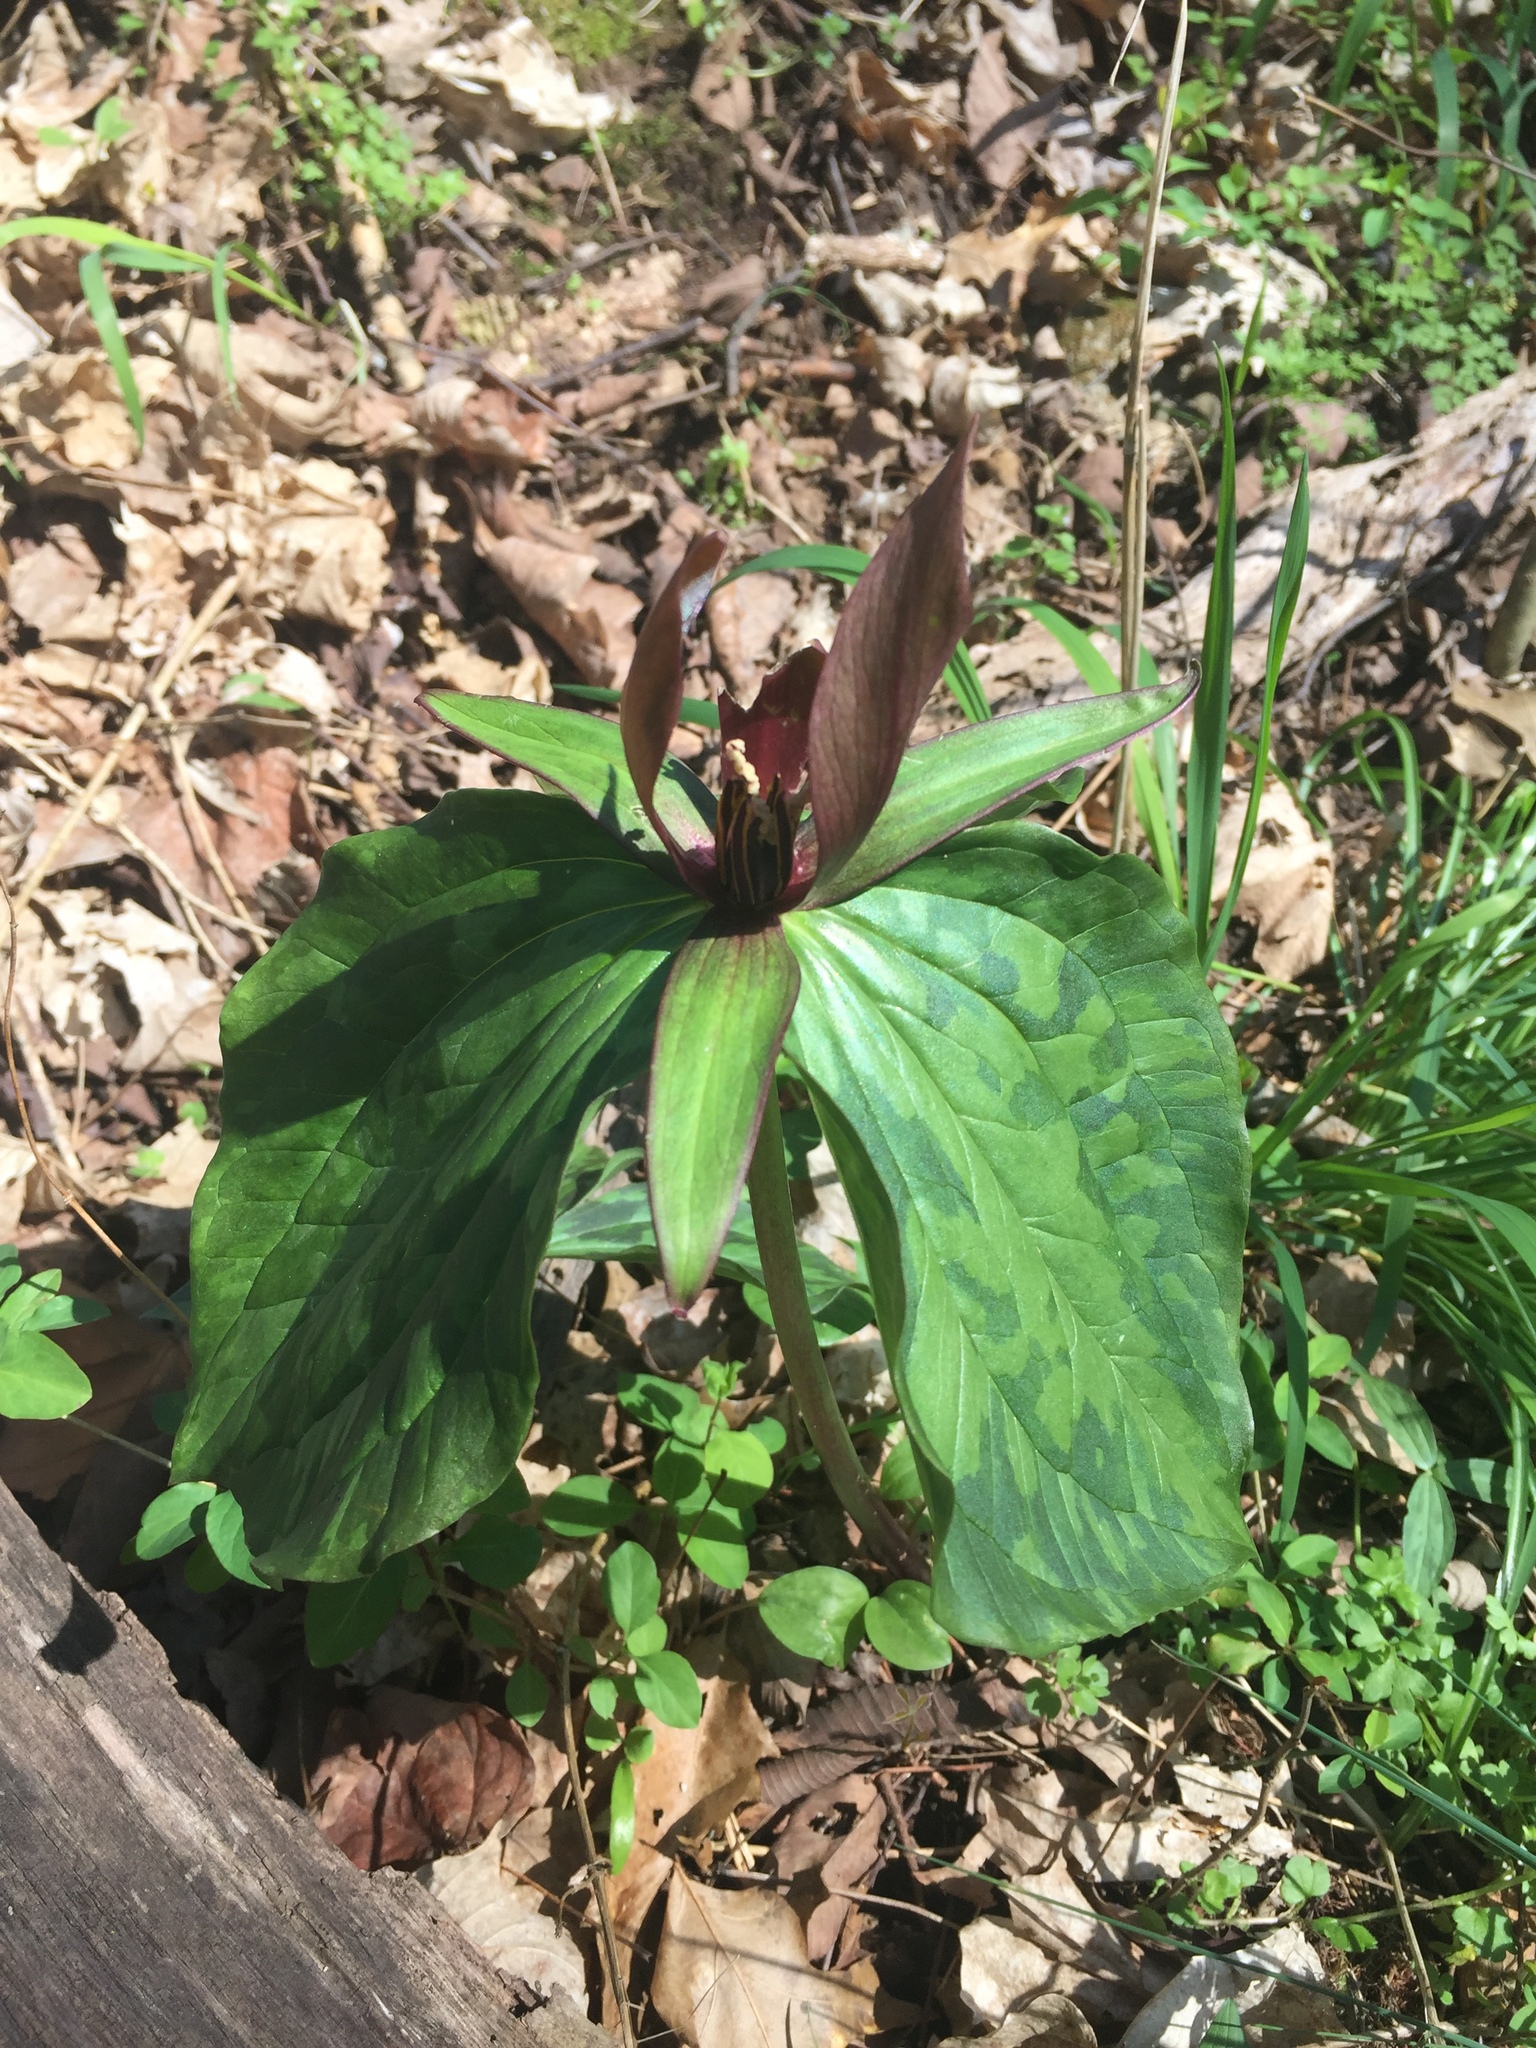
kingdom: Plantae
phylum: Tracheophyta
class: Liliopsida
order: Liliales
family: Melanthiaceae
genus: Trillium
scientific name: Trillium cuneatum
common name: Cuneate trillium
